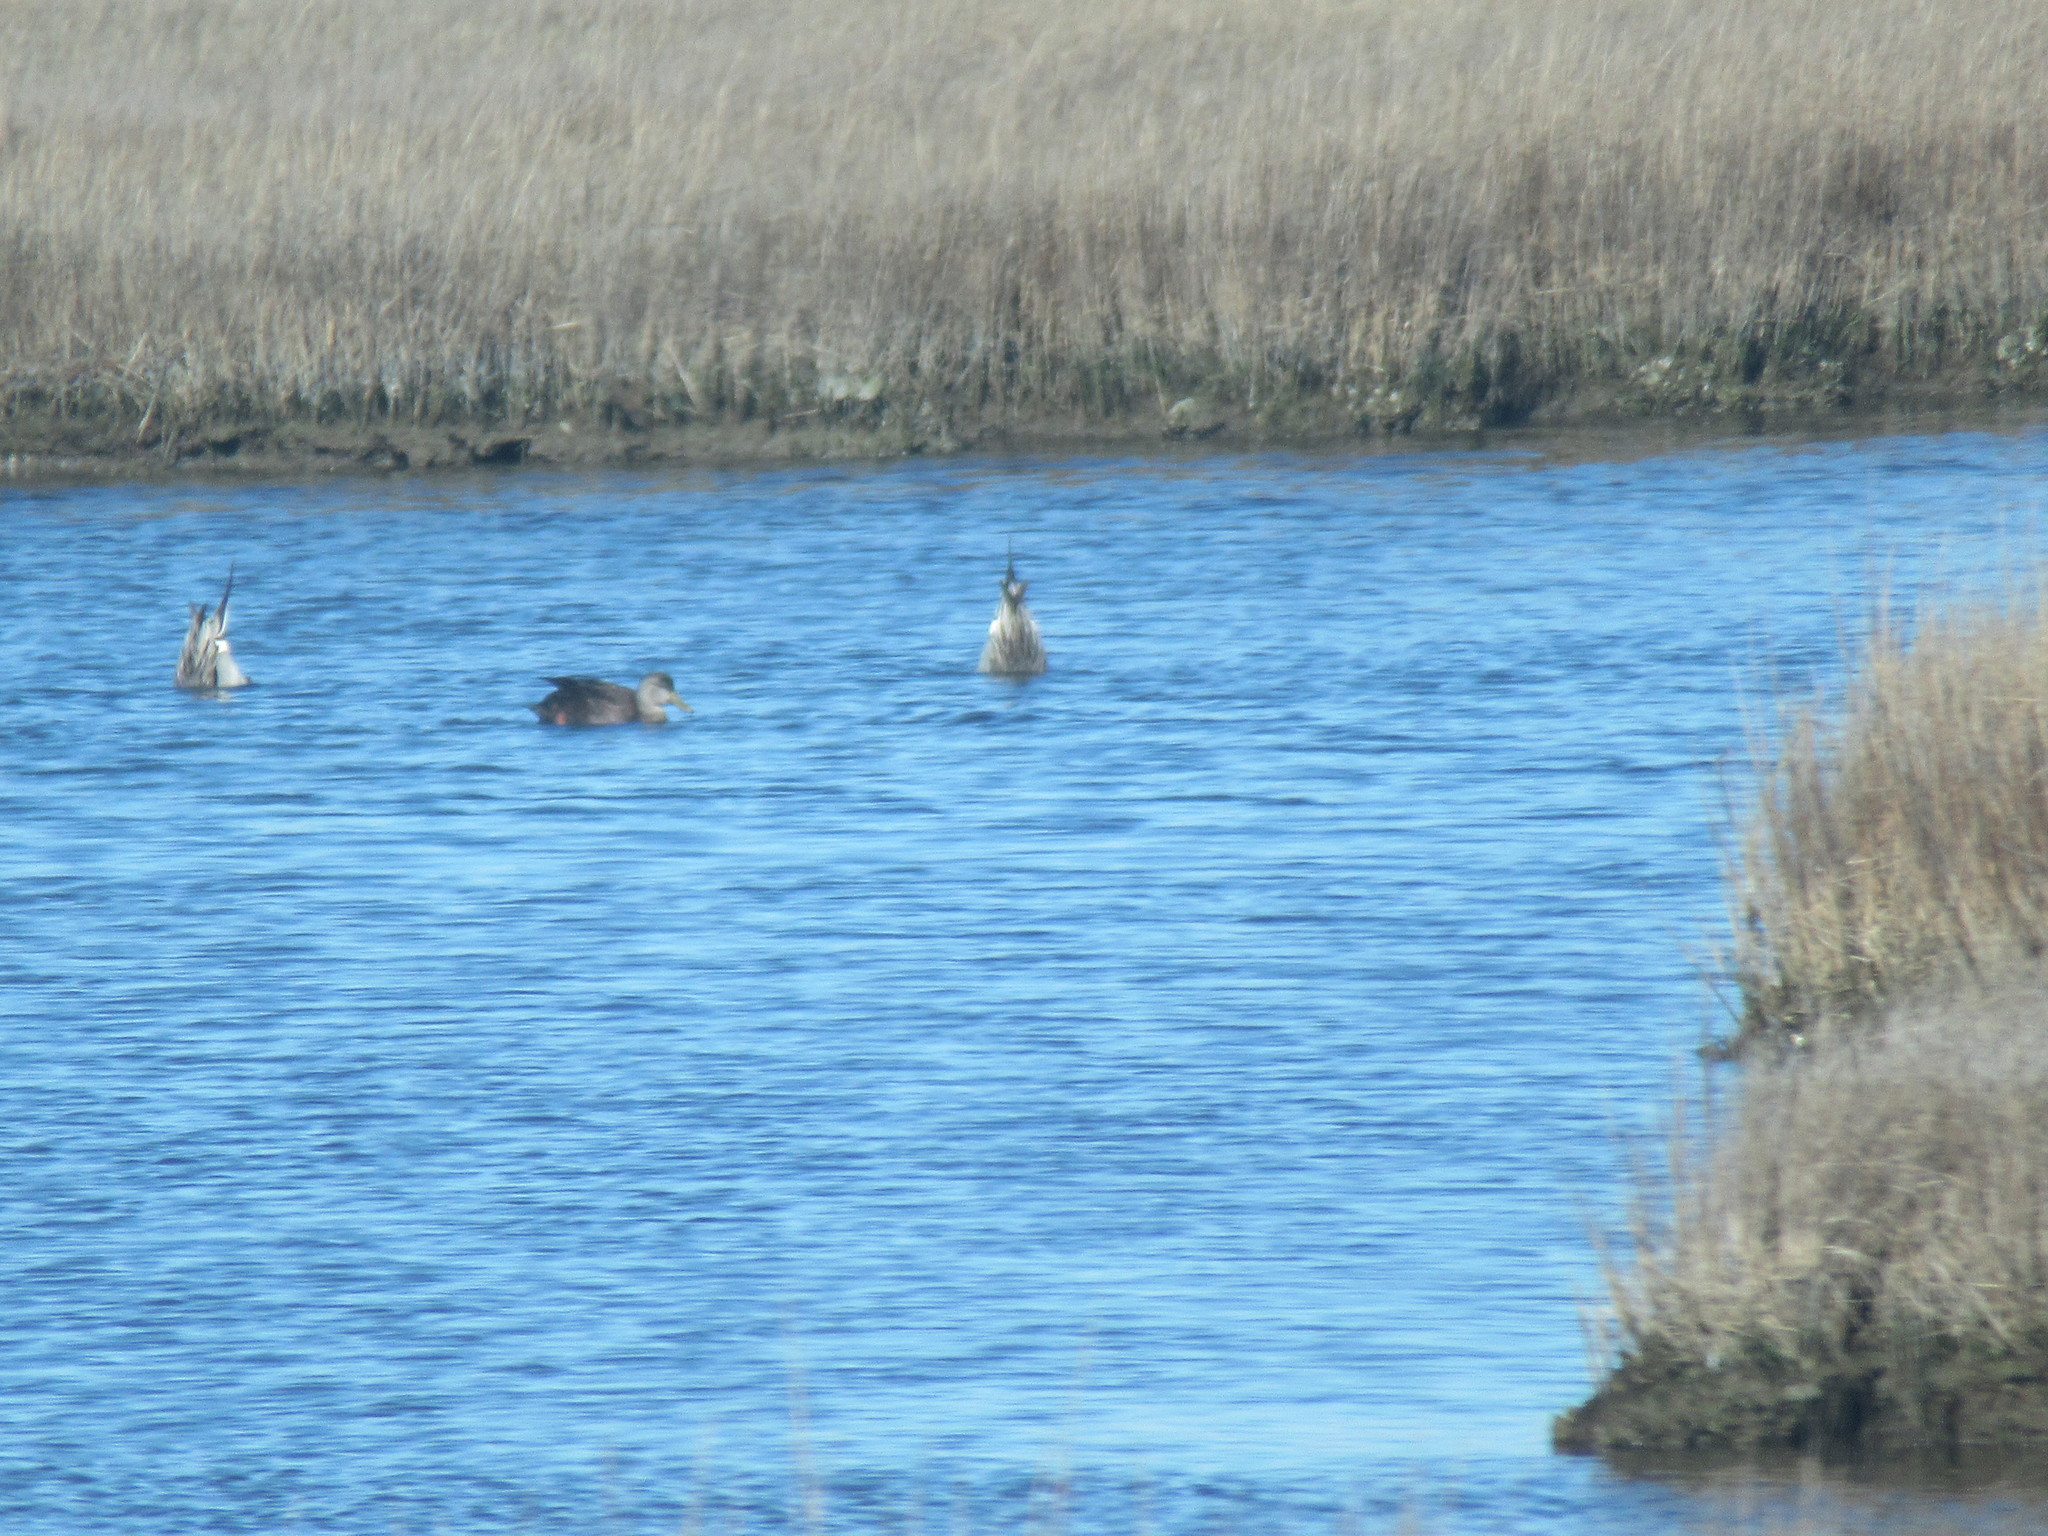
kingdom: Animalia
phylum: Chordata
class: Aves
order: Anseriformes
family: Anatidae
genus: Anas
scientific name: Anas acuta
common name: Northern pintail
